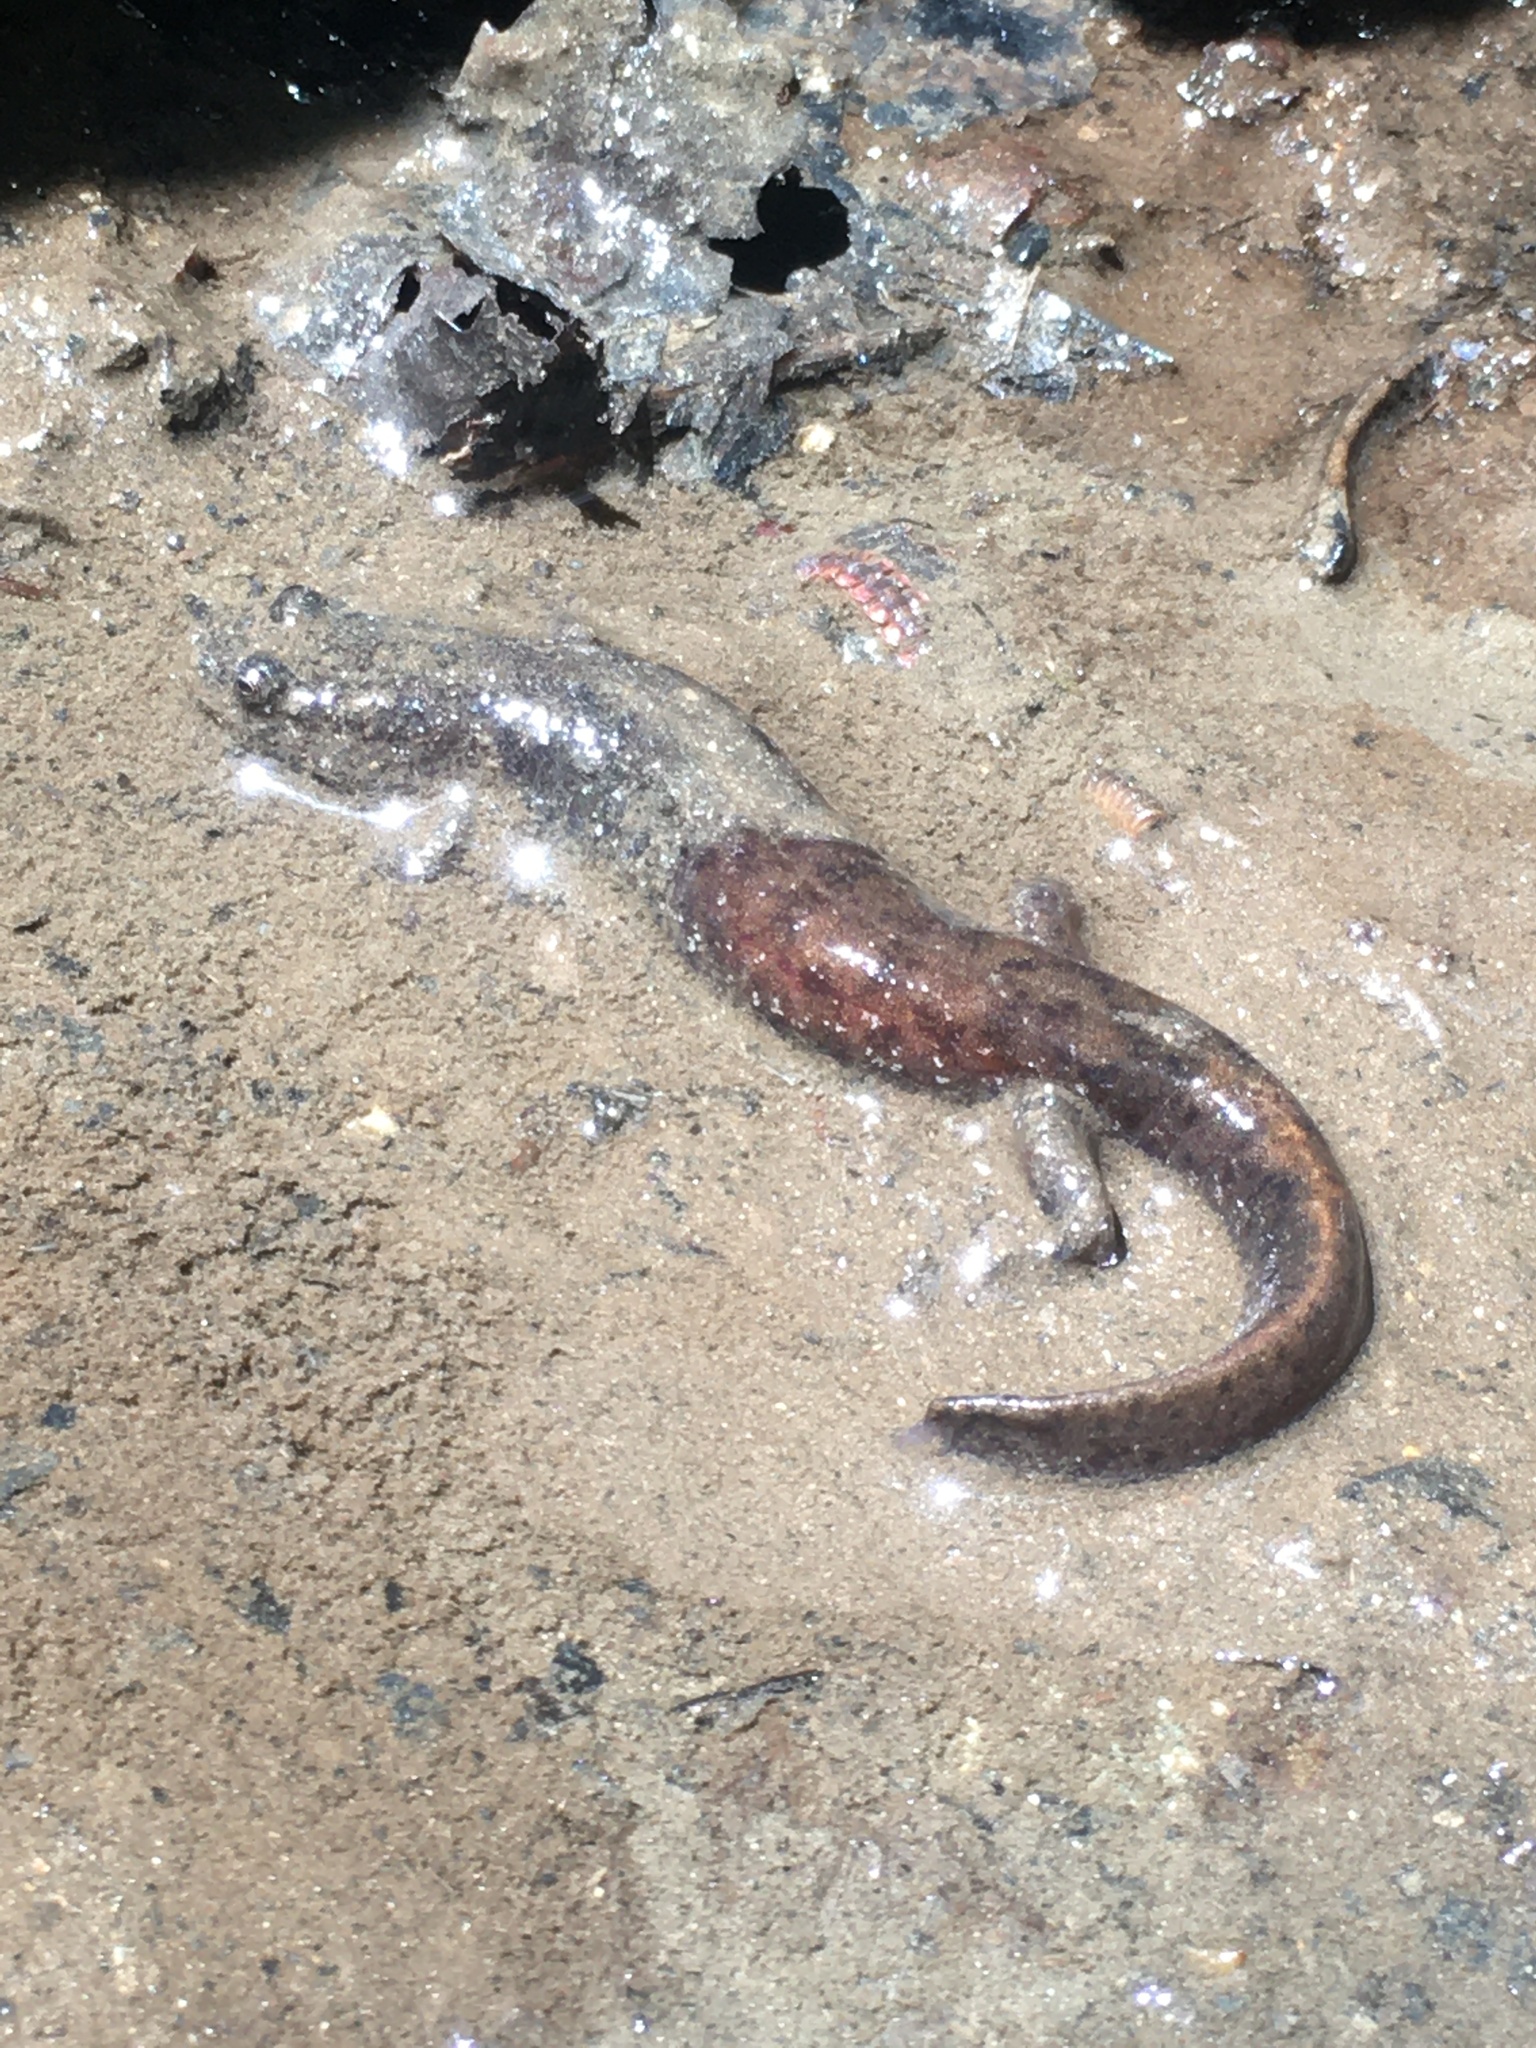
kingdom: Animalia
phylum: Chordata
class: Amphibia
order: Caudata
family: Plethodontidae
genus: Desmognathus
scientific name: Desmognathus monticola
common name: Seal salamander
